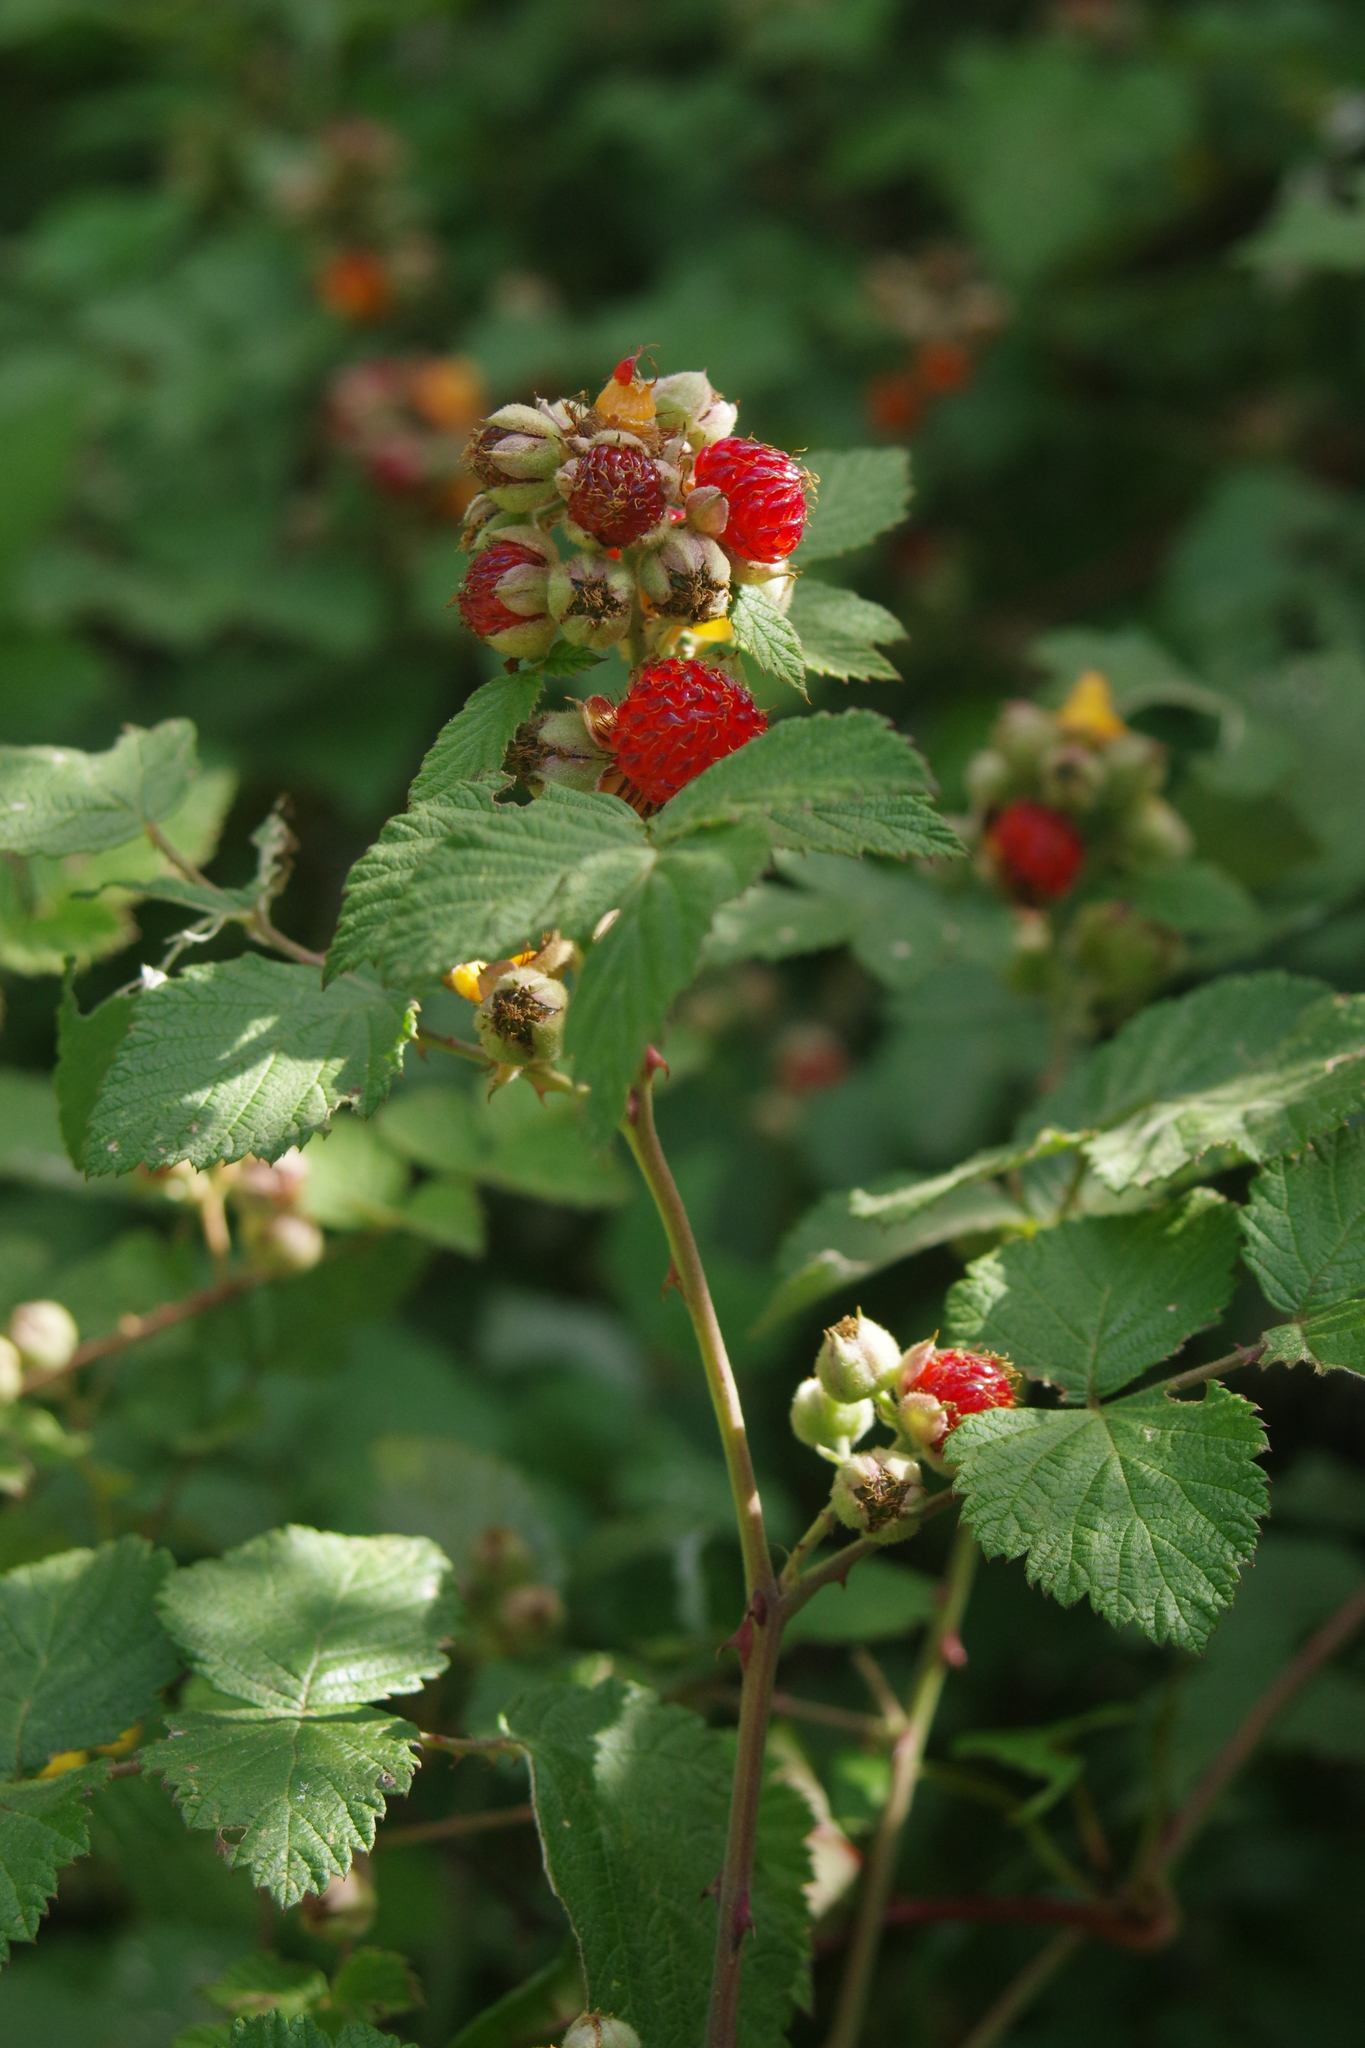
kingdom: Plantae
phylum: Tracheophyta
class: Magnoliopsida
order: Rosales
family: Rosaceae
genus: Rubus
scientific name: Rubus niveus
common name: Snowpeaks raspberry
